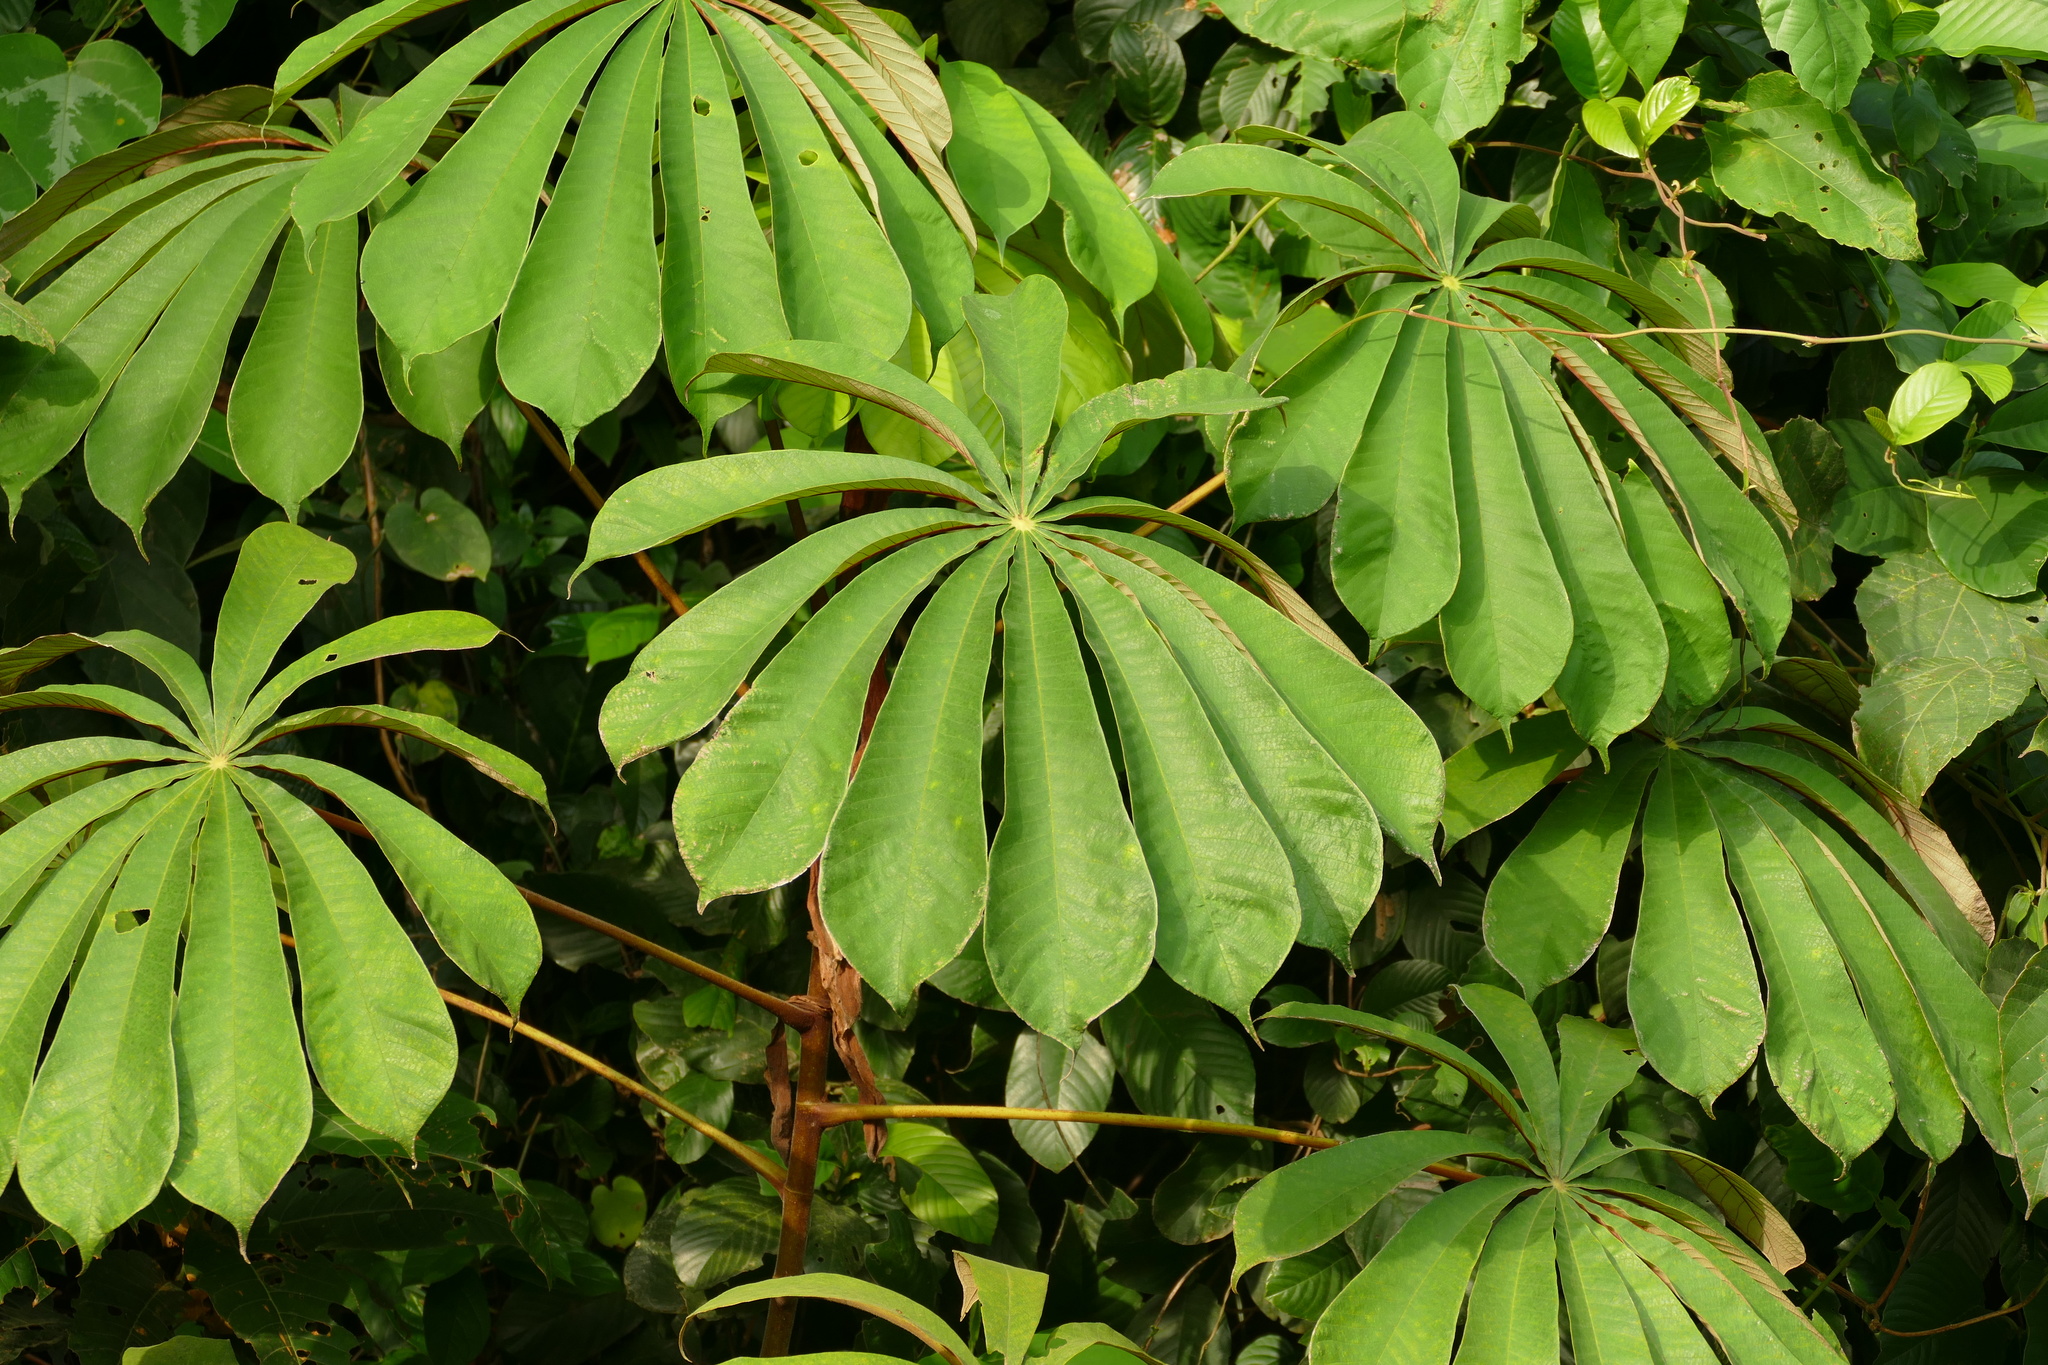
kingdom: Plantae
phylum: Tracheophyta
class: Magnoliopsida
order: Rosales
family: Urticaceae
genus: Musanga
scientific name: Musanga cecropioides
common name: African corkwood
